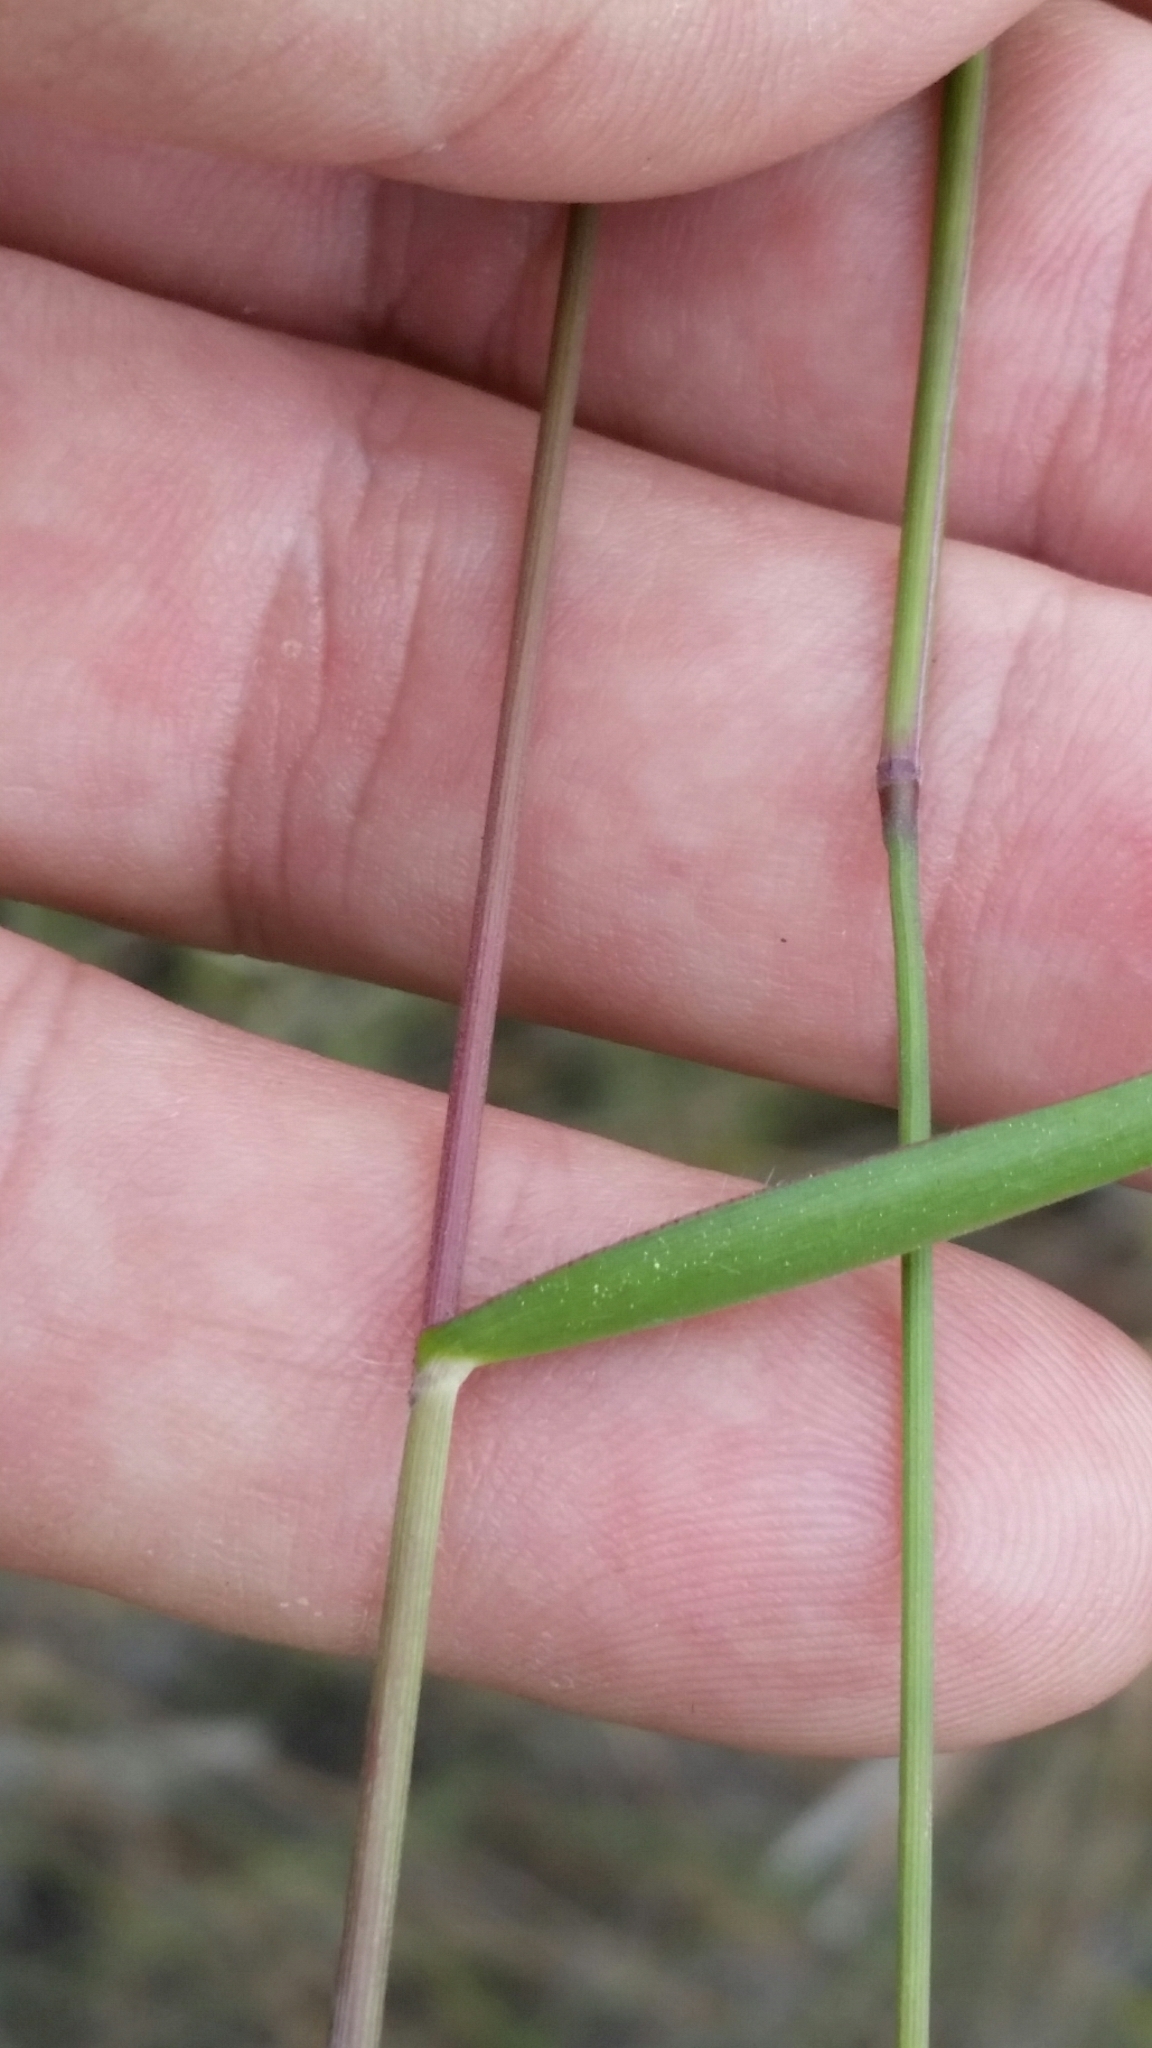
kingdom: Plantae
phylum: Tracheophyta
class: Liliopsida
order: Poales
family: Poaceae
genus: Dichanthelium
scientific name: Dichanthelium portoricense
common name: American panicgrass
